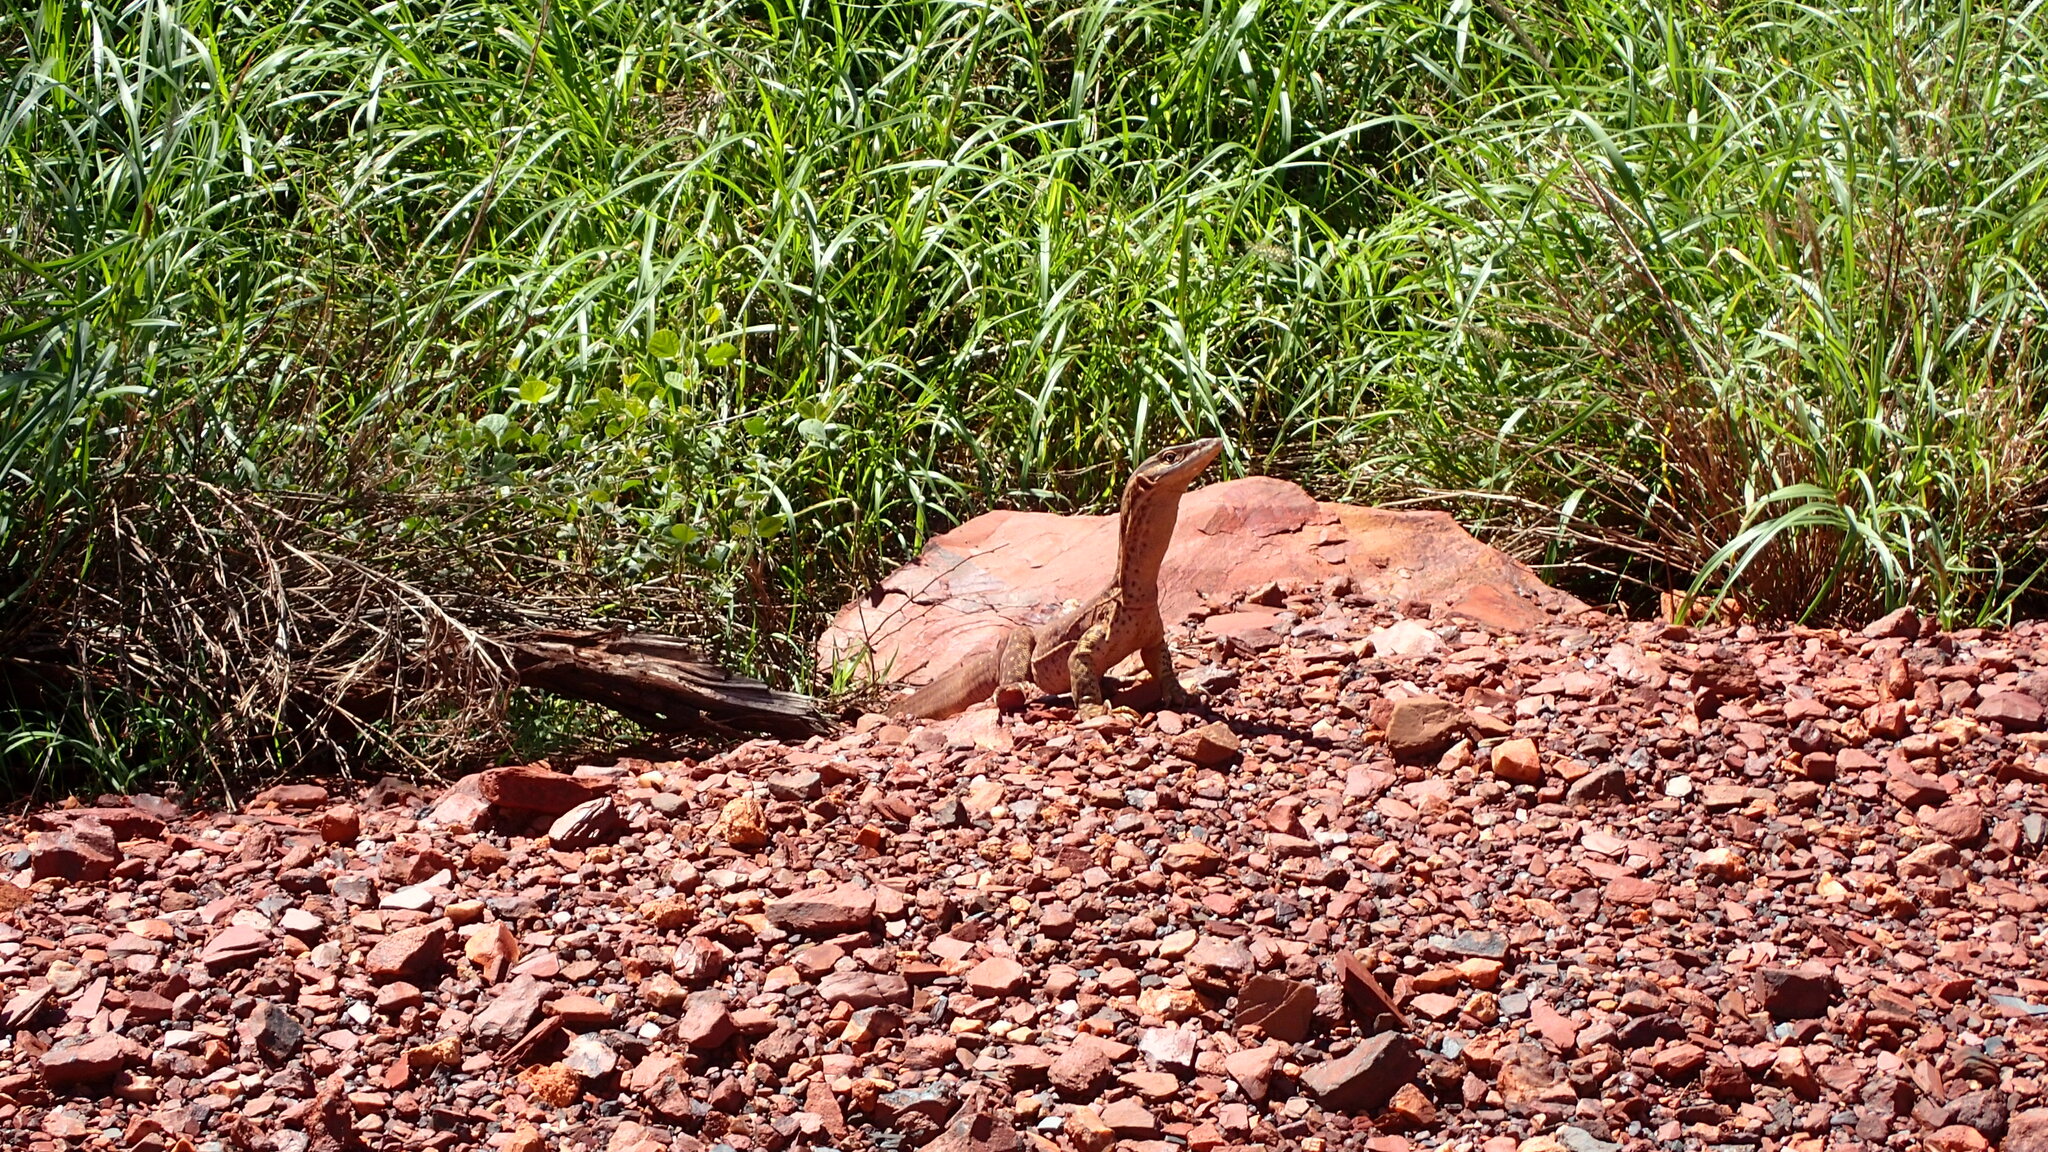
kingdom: Animalia
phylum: Chordata
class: Squamata
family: Varanidae
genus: Varanus
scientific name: Varanus panoptes
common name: Yellow-spotted monitor
